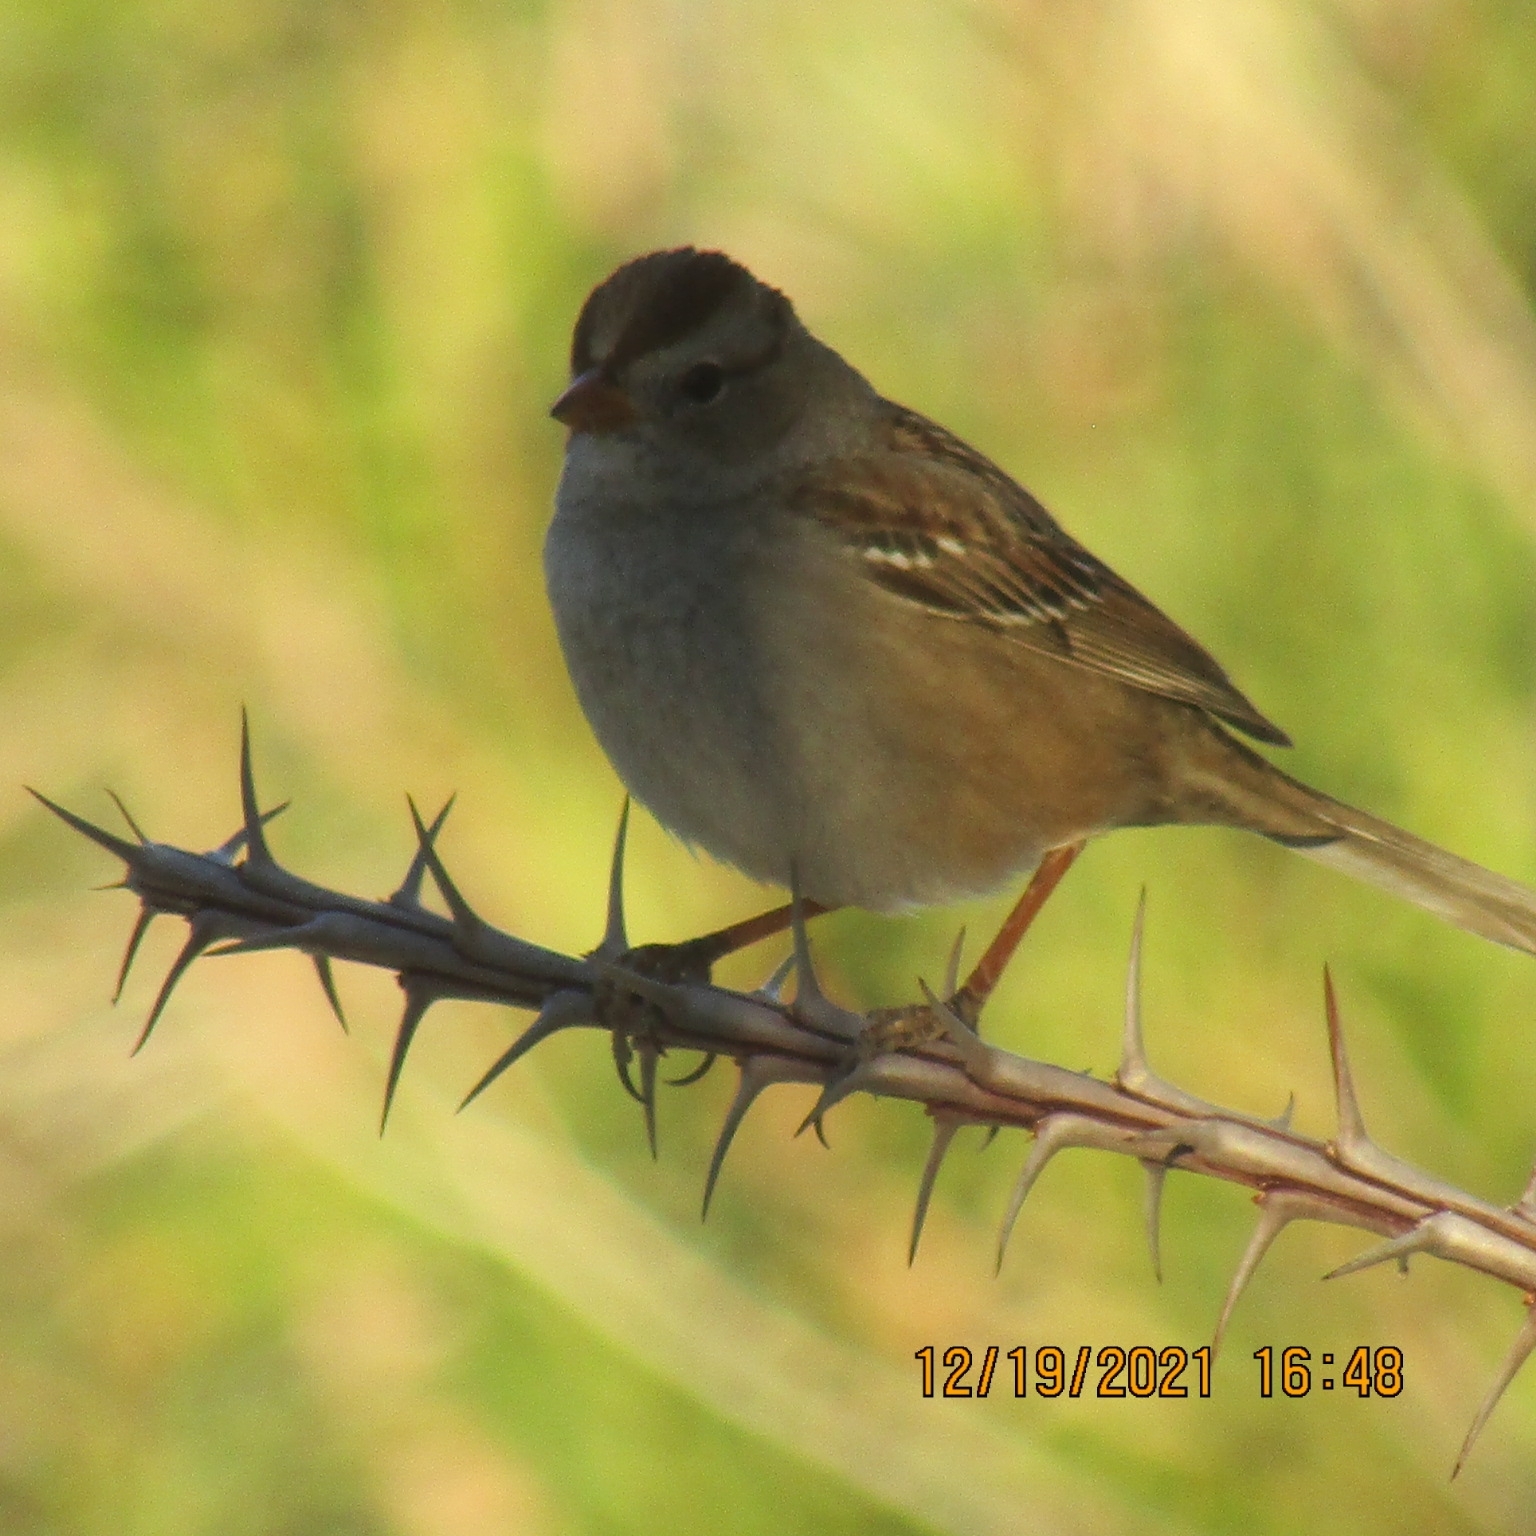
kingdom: Animalia
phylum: Chordata
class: Aves
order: Passeriformes
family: Passerellidae
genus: Zonotrichia
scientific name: Zonotrichia leucophrys
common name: White-crowned sparrow
